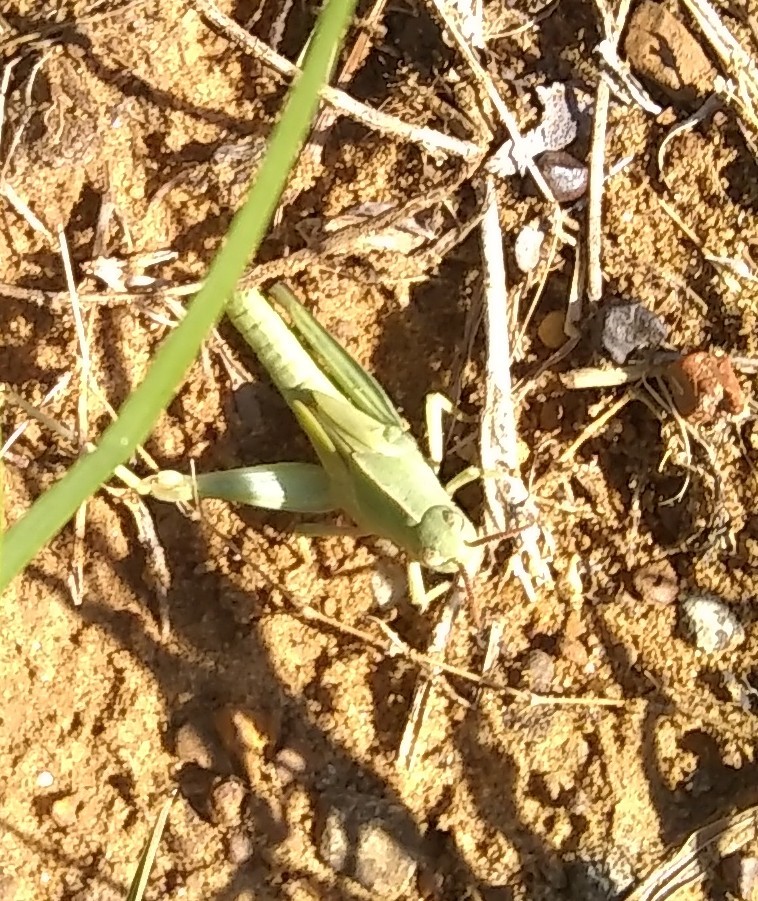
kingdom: Animalia
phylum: Arthropoda
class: Insecta
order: Orthoptera
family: Acrididae
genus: Chortophaga
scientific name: Chortophaga viridifasciata
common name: Green-striped grasshopper
